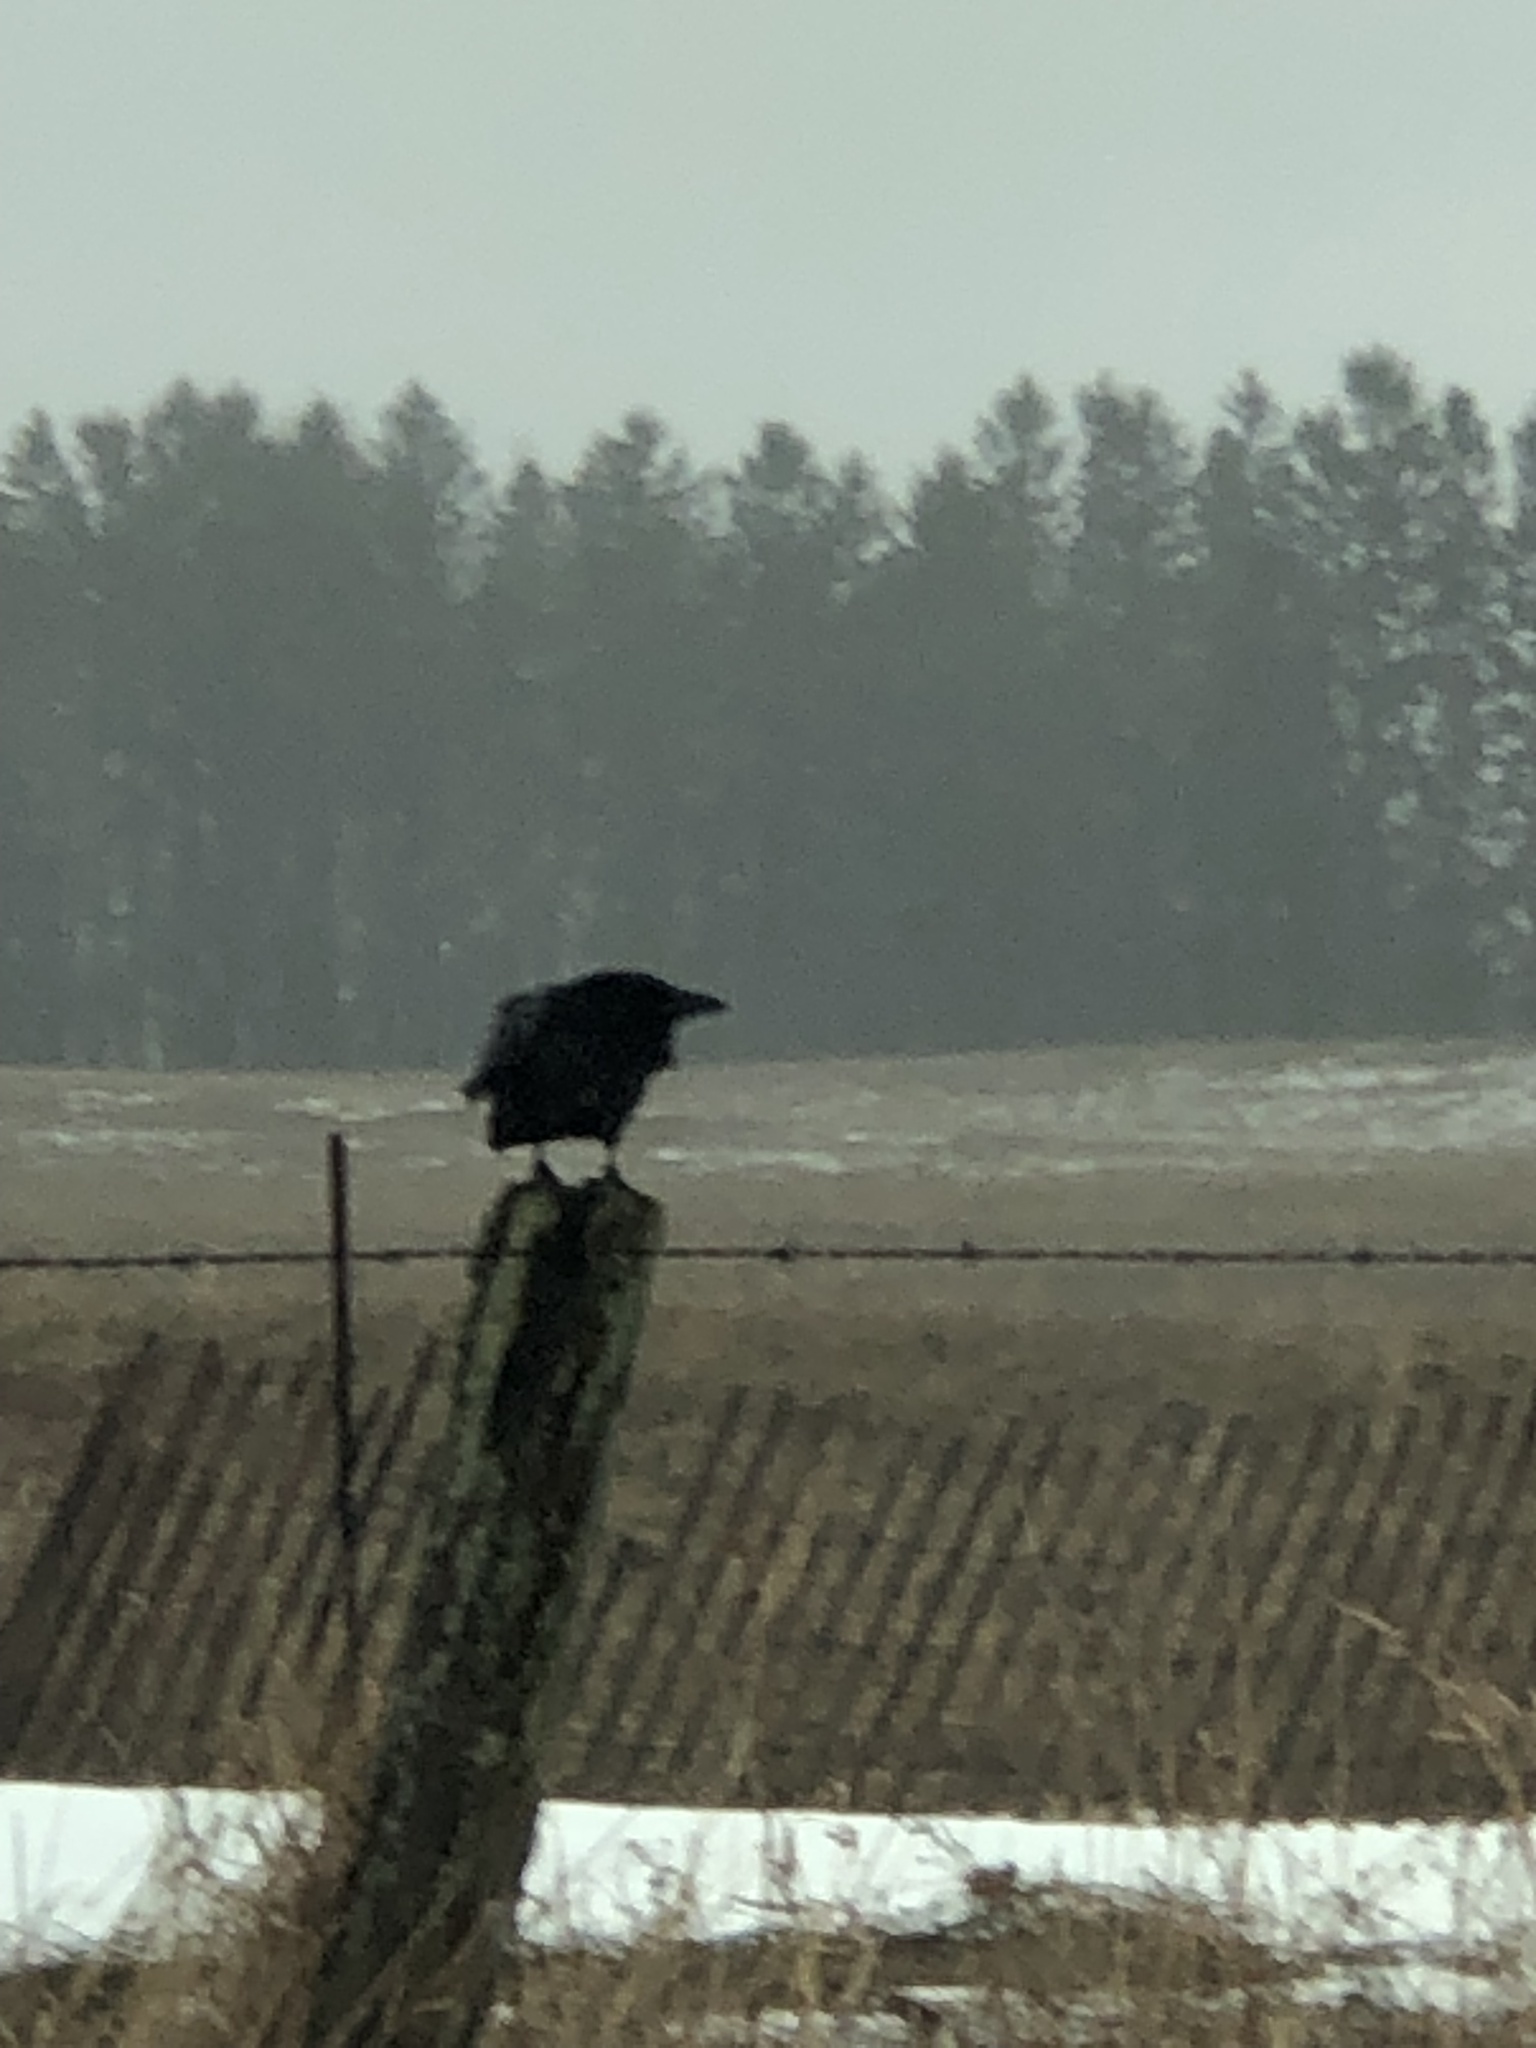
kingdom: Animalia
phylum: Chordata
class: Aves
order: Passeriformes
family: Corvidae
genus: Corvus
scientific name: Corvus brachyrhynchos
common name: American crow
